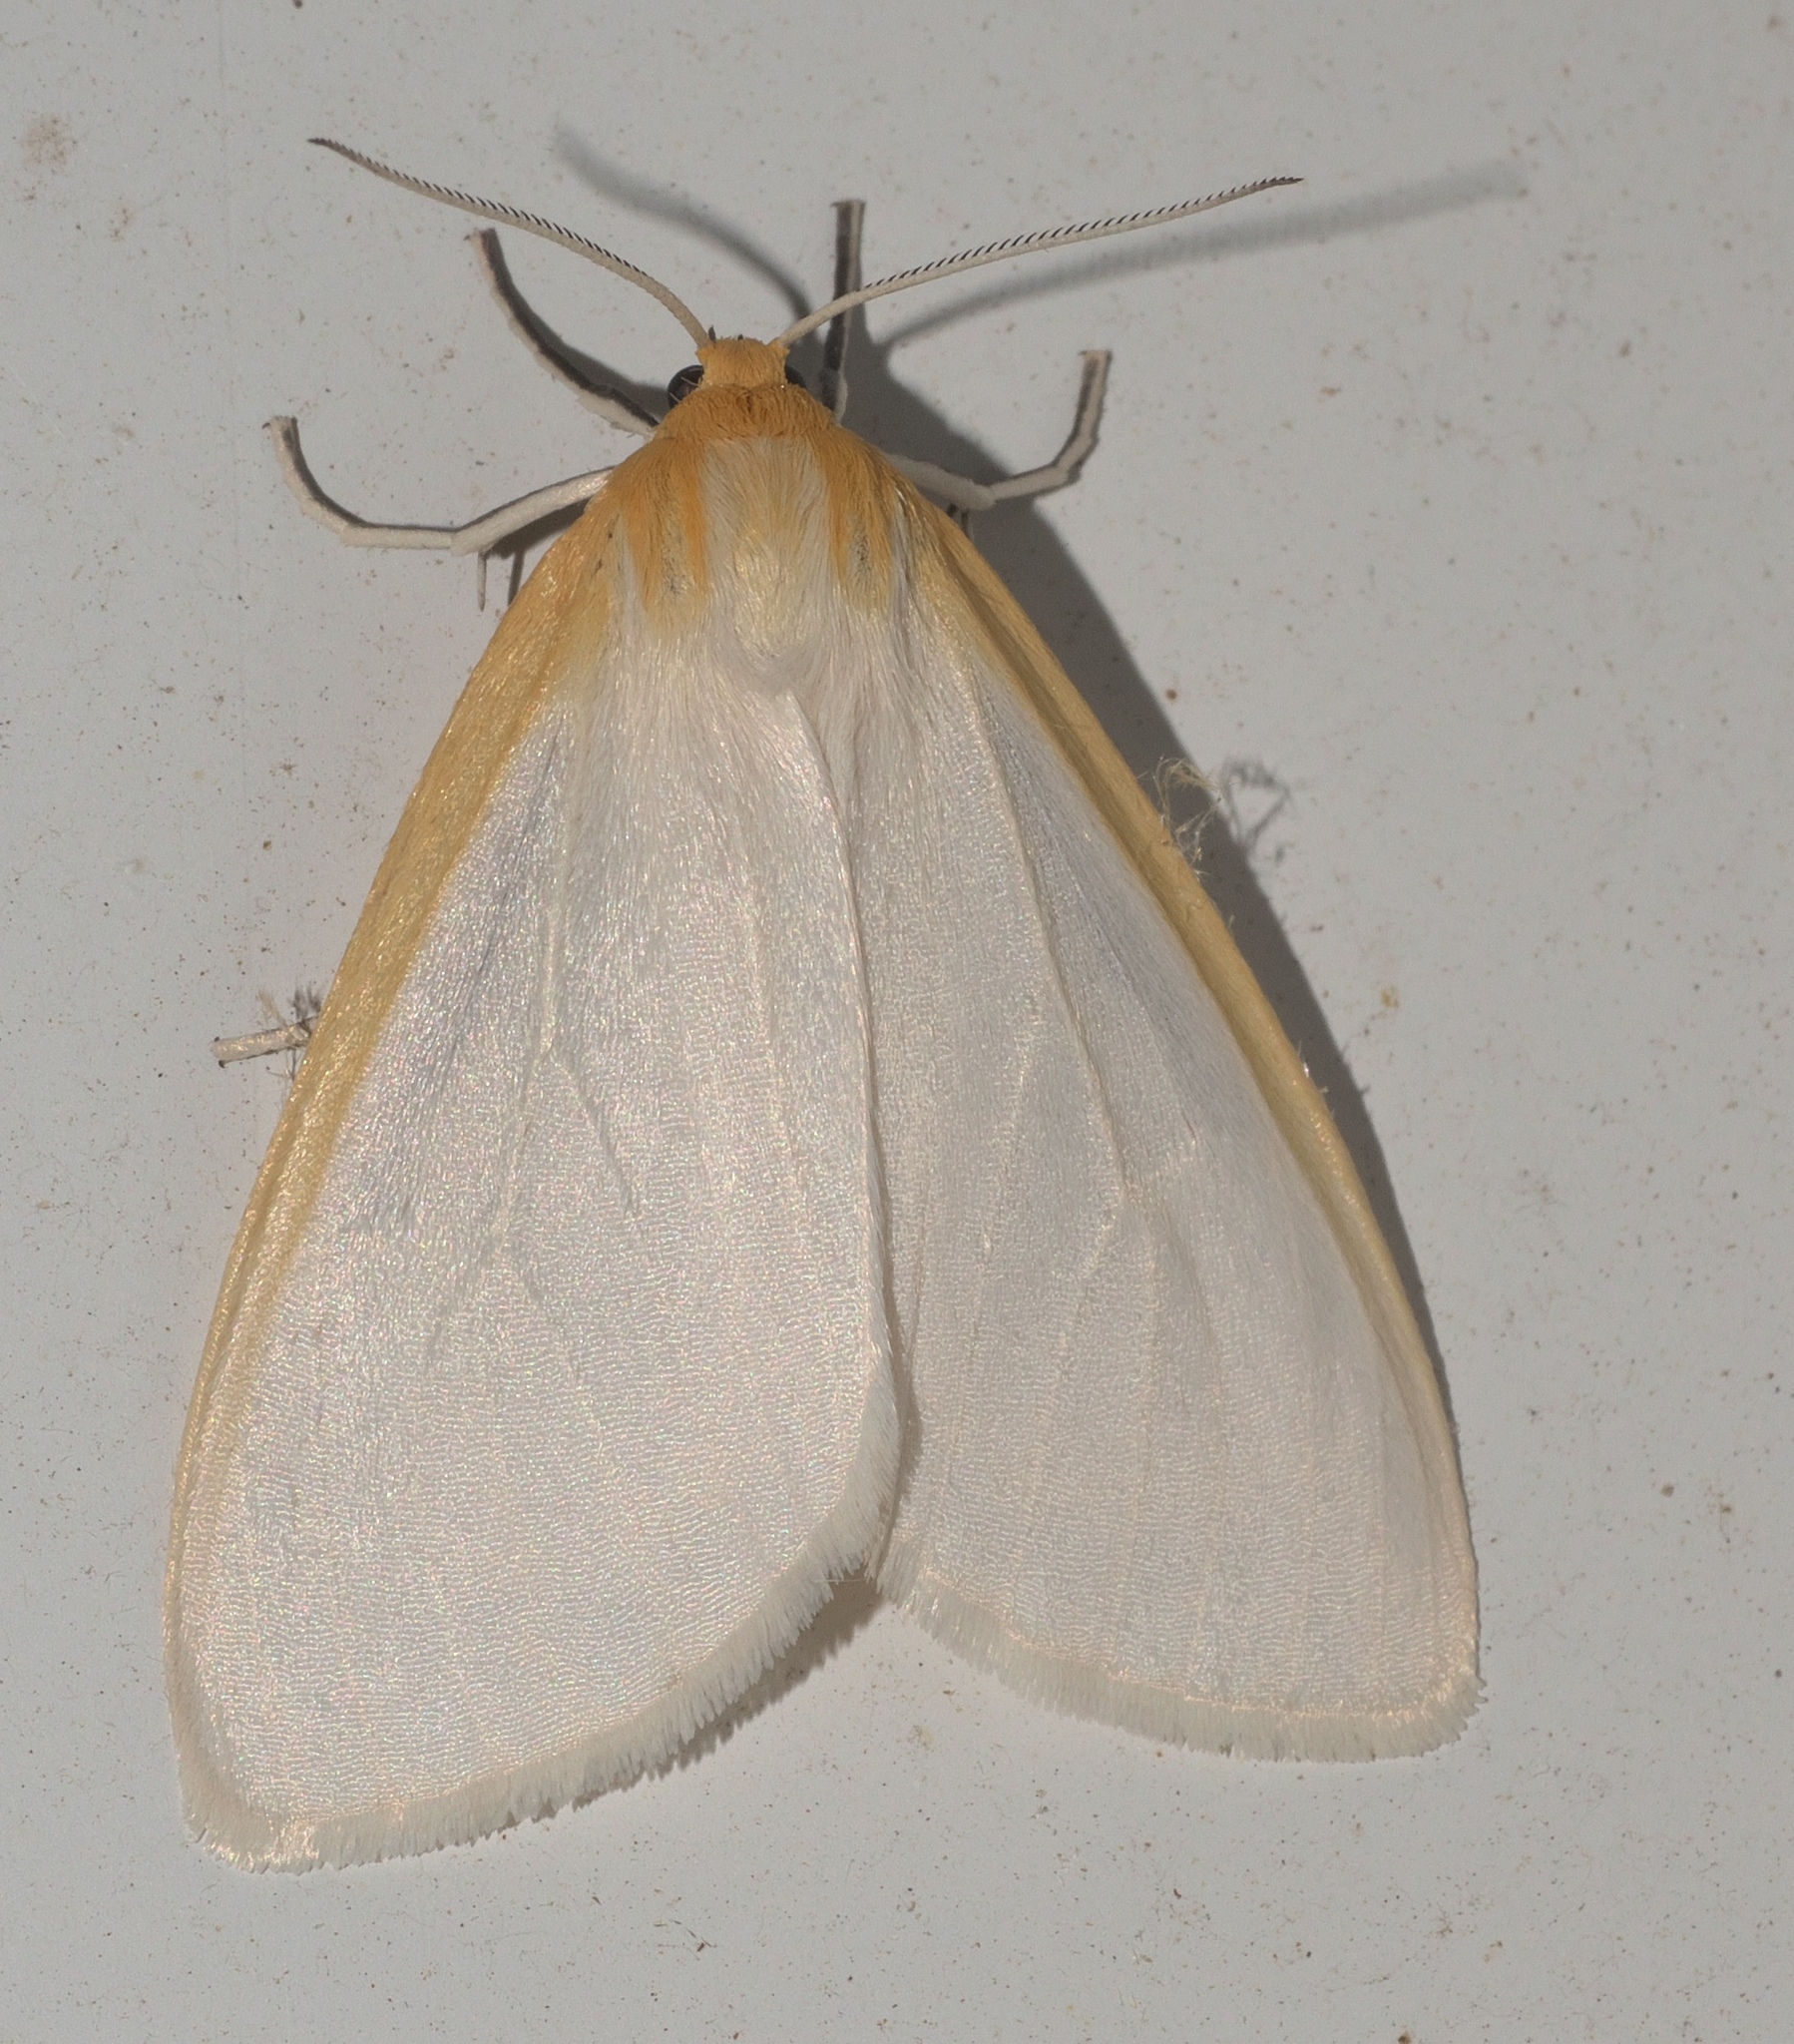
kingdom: Animalia
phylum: Arthropoda
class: Insecta
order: Lepidoptera
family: Erebidae
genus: Cycnia
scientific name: Cycnia tenera
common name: Delicate cycnia moth
